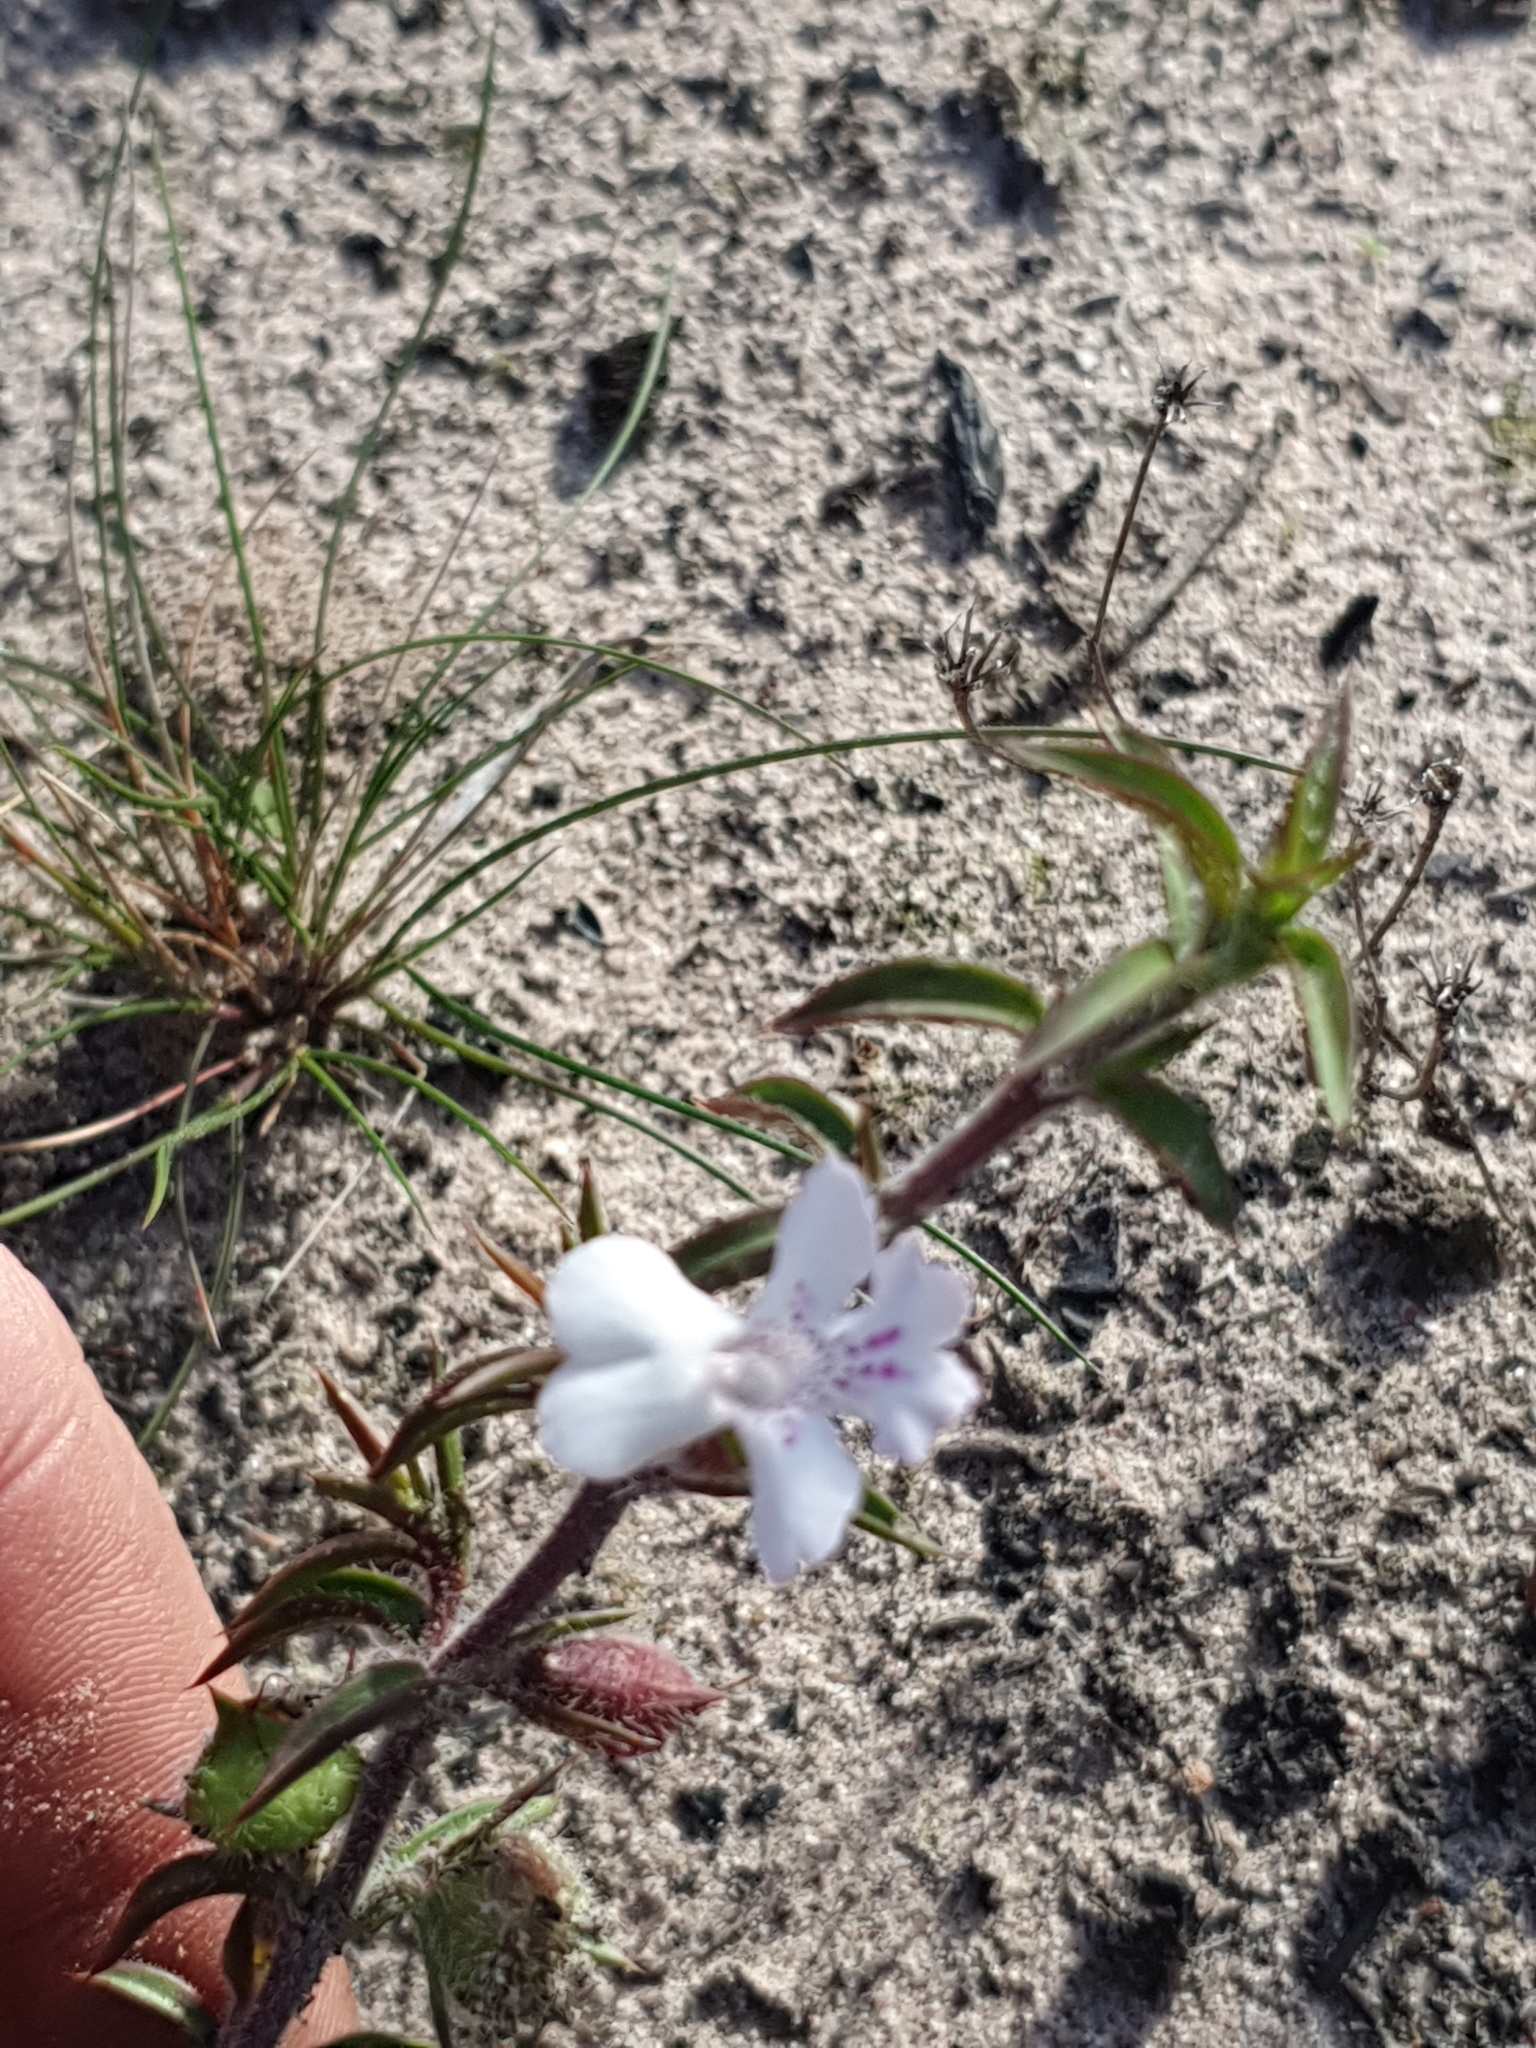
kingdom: Plantae
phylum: Tracheophyta
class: Magnoliopsida
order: Lamiales
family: Lamiaceae
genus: Hemiandra
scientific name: Hemiandra pungens
